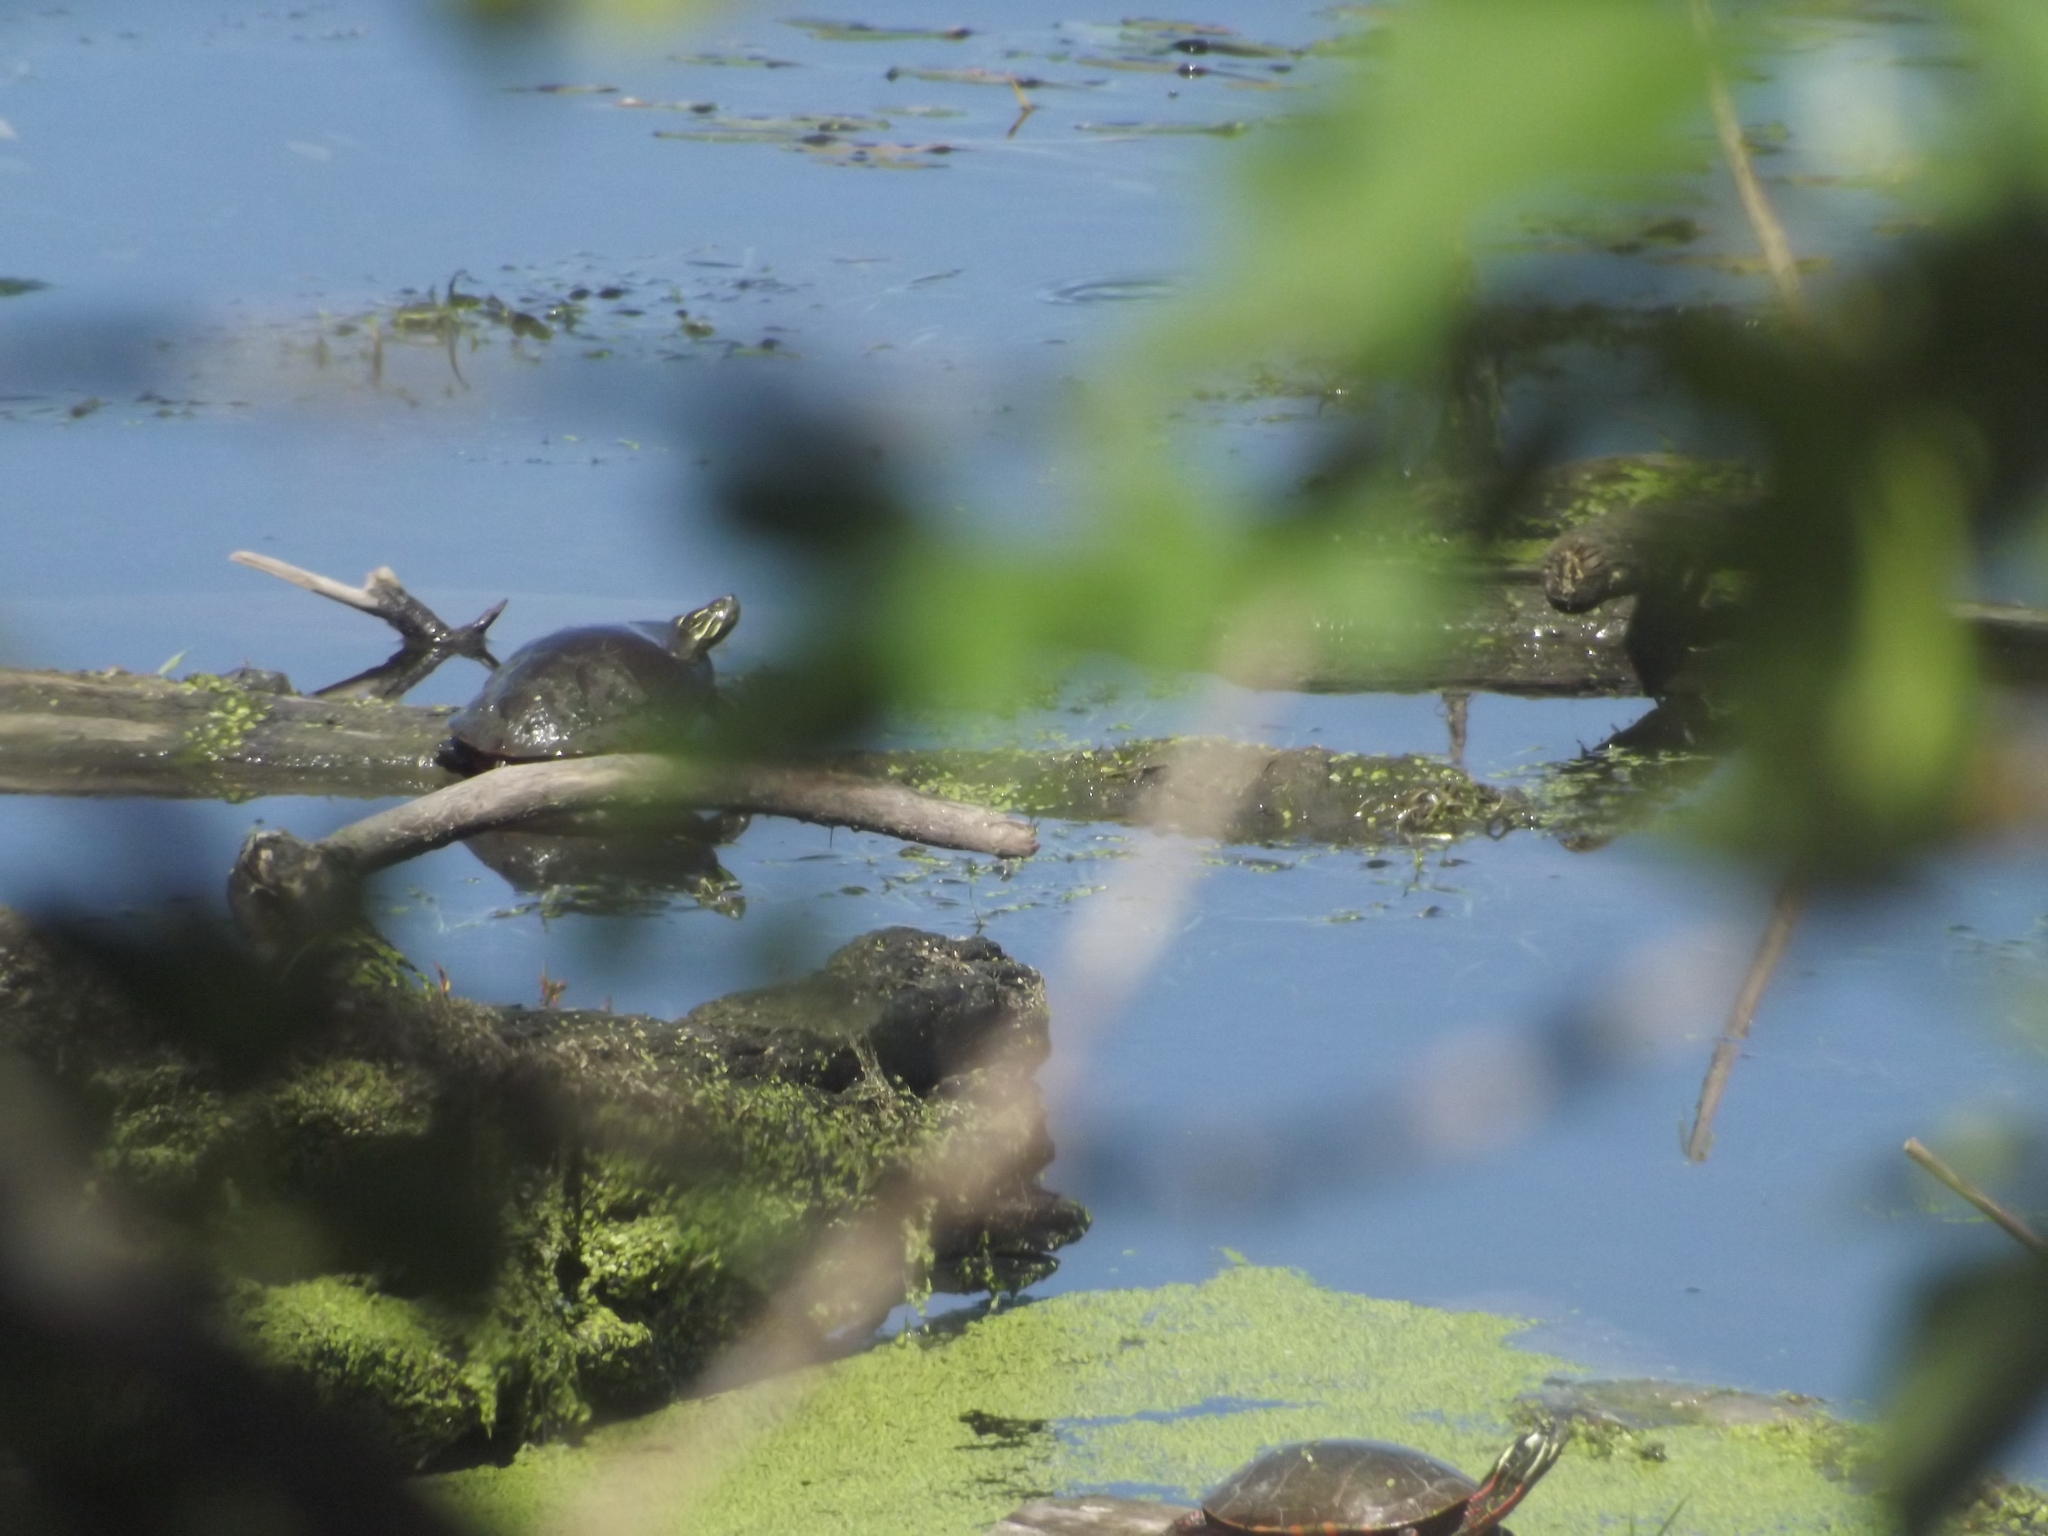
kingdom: Animalia
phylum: Chordata
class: Testudines
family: Emydidae
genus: Chrysemys
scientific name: Chrysemys picta
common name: Painted turtle
